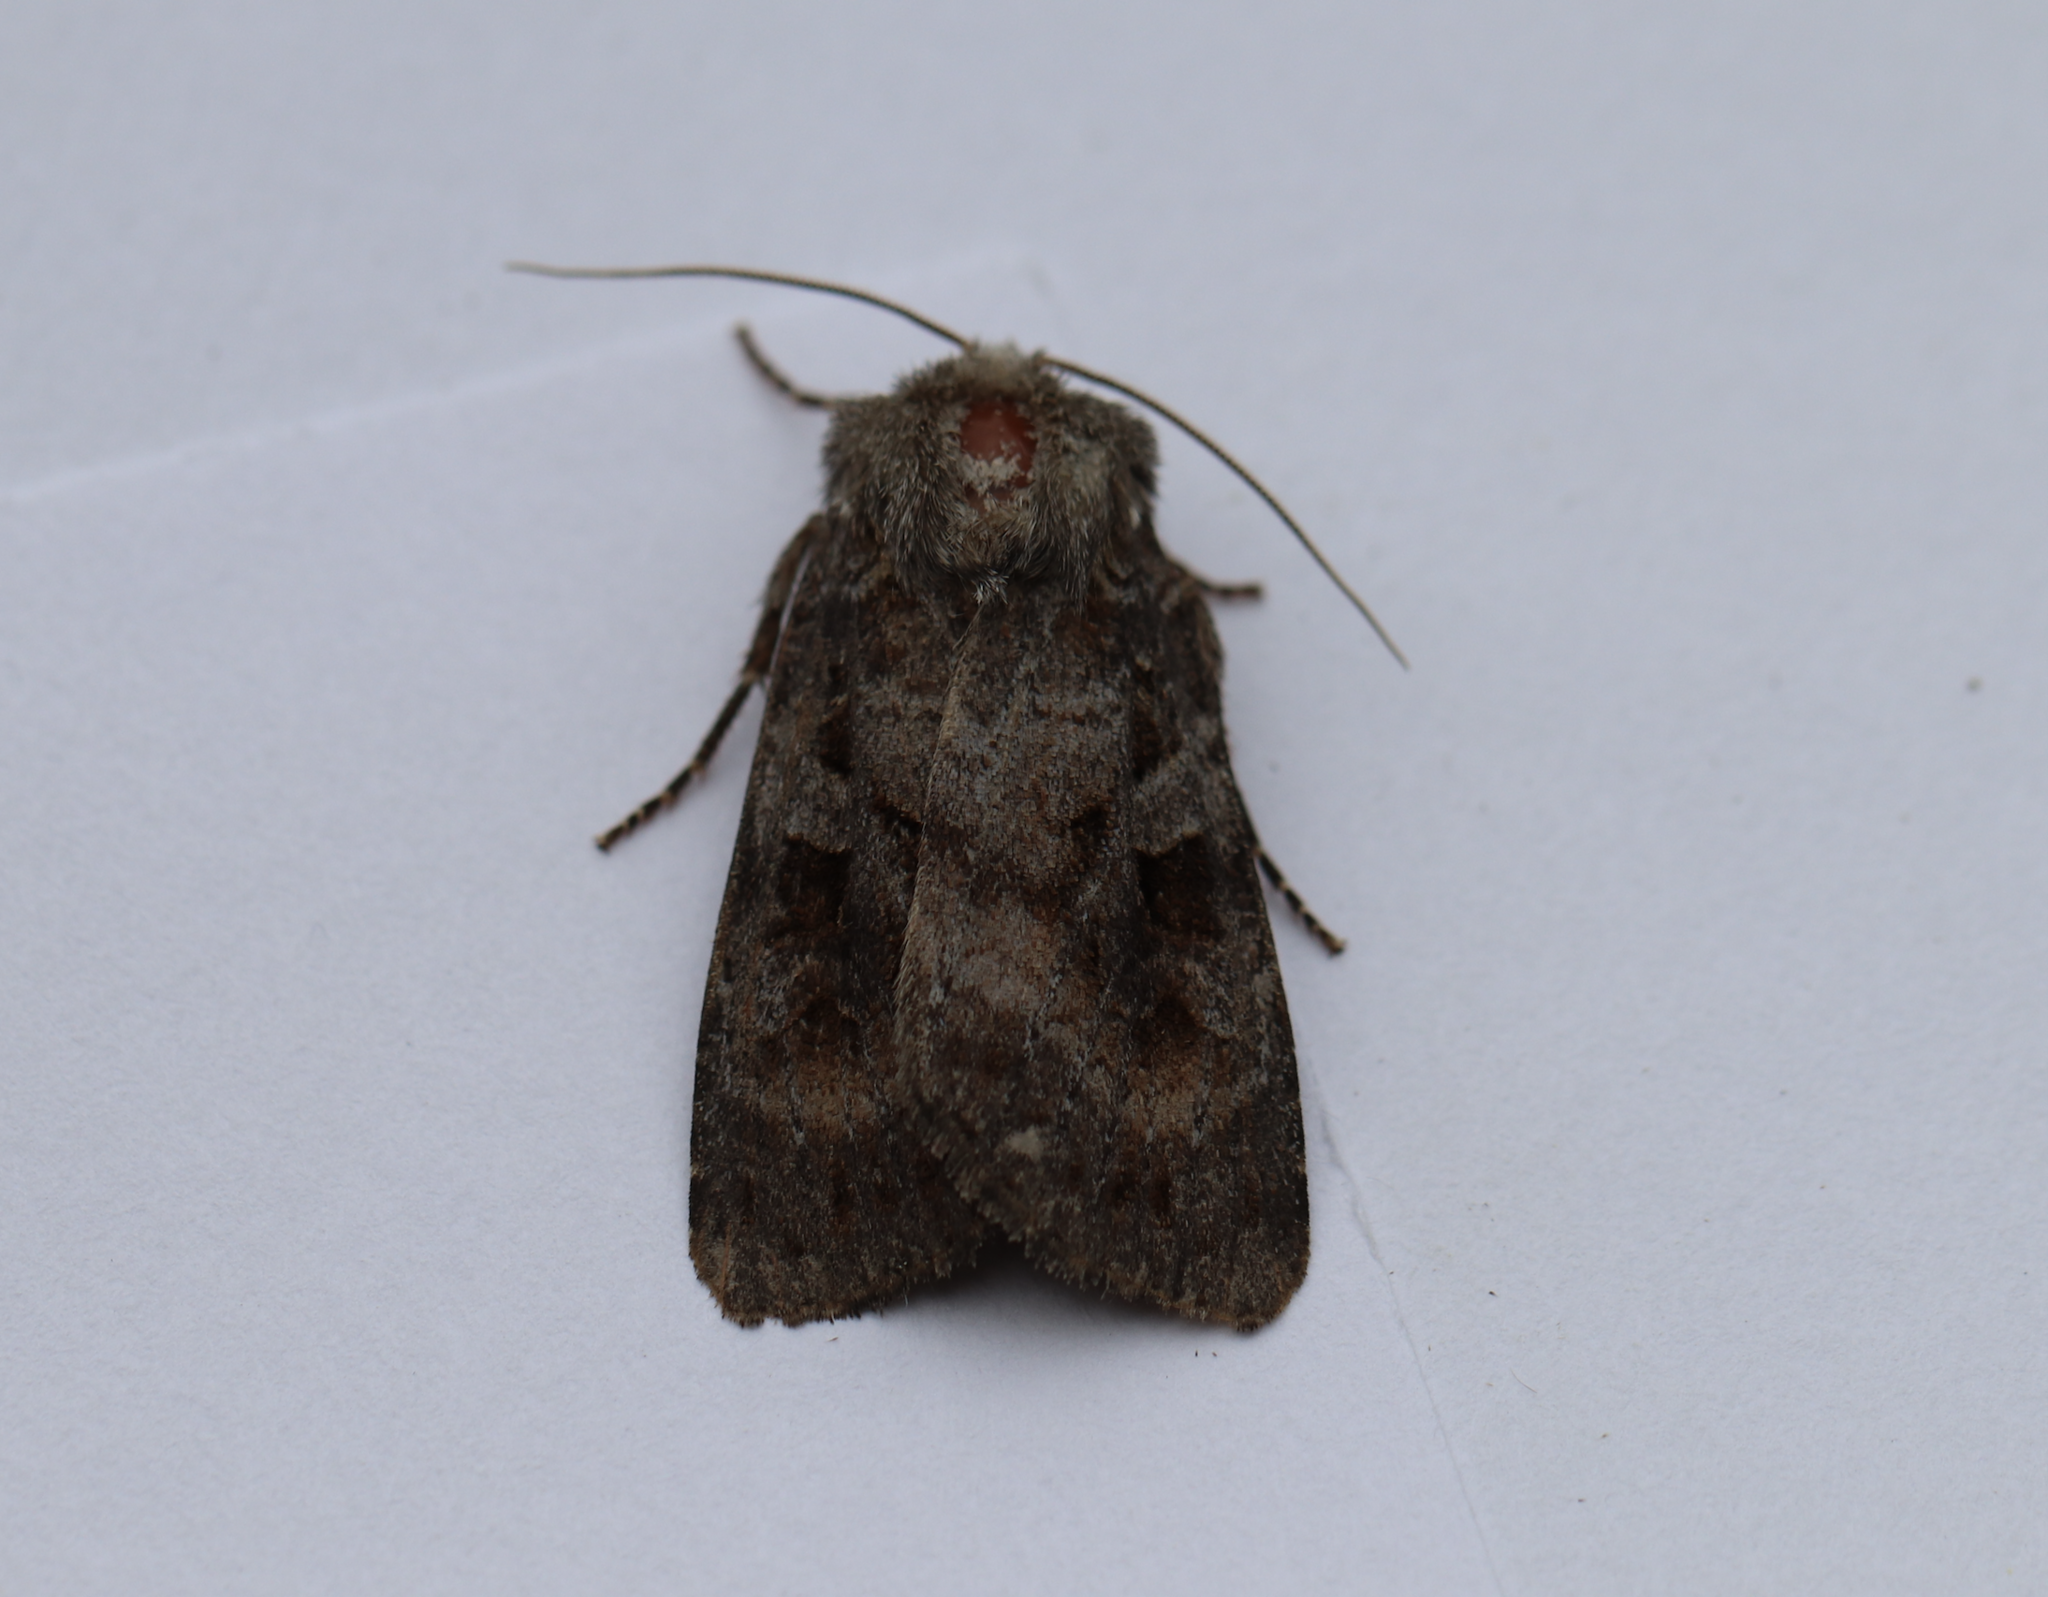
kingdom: Animalia
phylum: Arthropoda
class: Insecta
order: Lepidoptera
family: Noctuidae
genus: Eurois
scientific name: Eurois astricta
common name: Great brown dart
